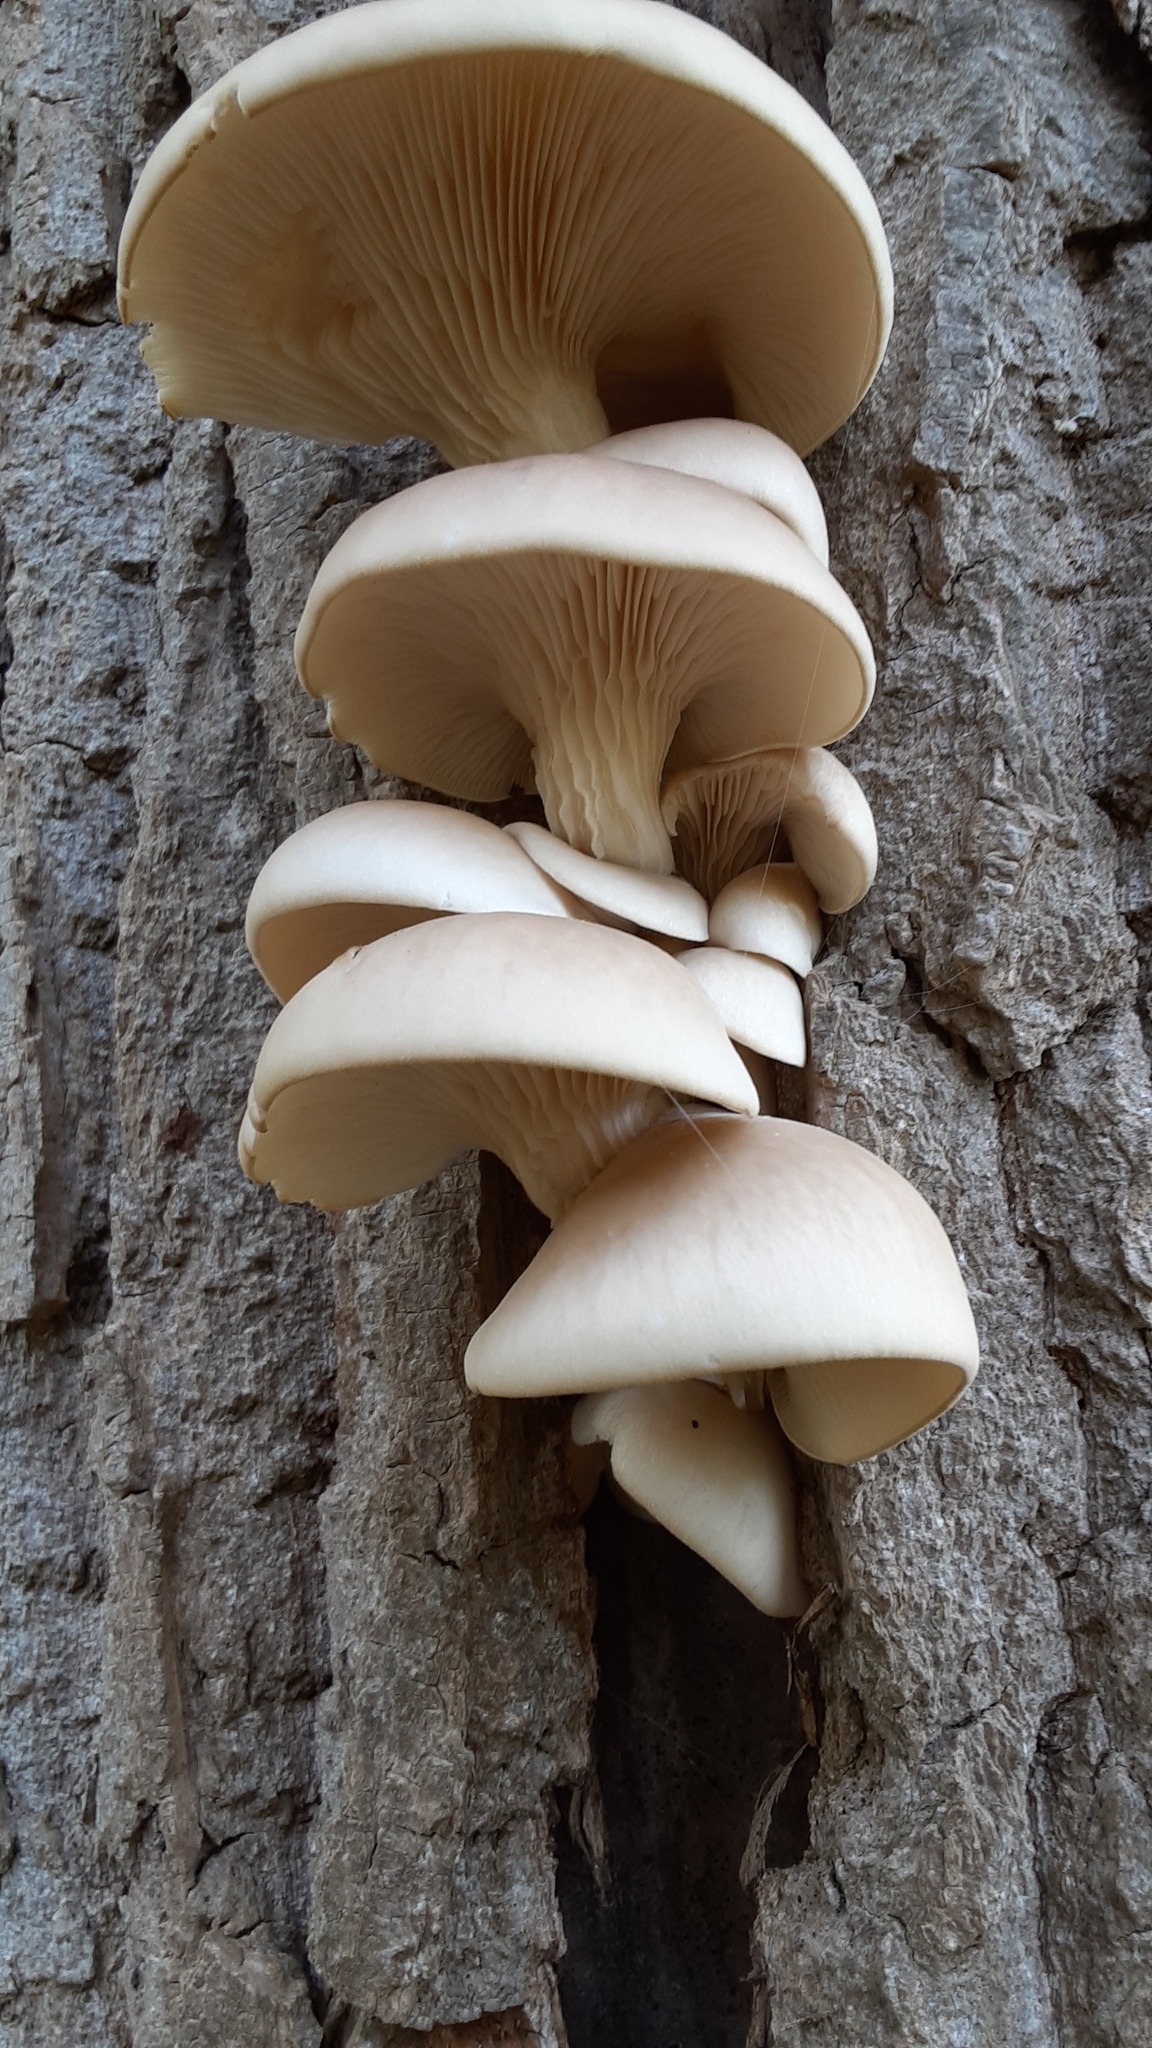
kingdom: Fungi
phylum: Basidiomycota
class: Agaricomycetes
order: Agaricales
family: Pleurotaceae
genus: Pleurotus
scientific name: Pleurotus ostreatus
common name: Oyster mushroom
